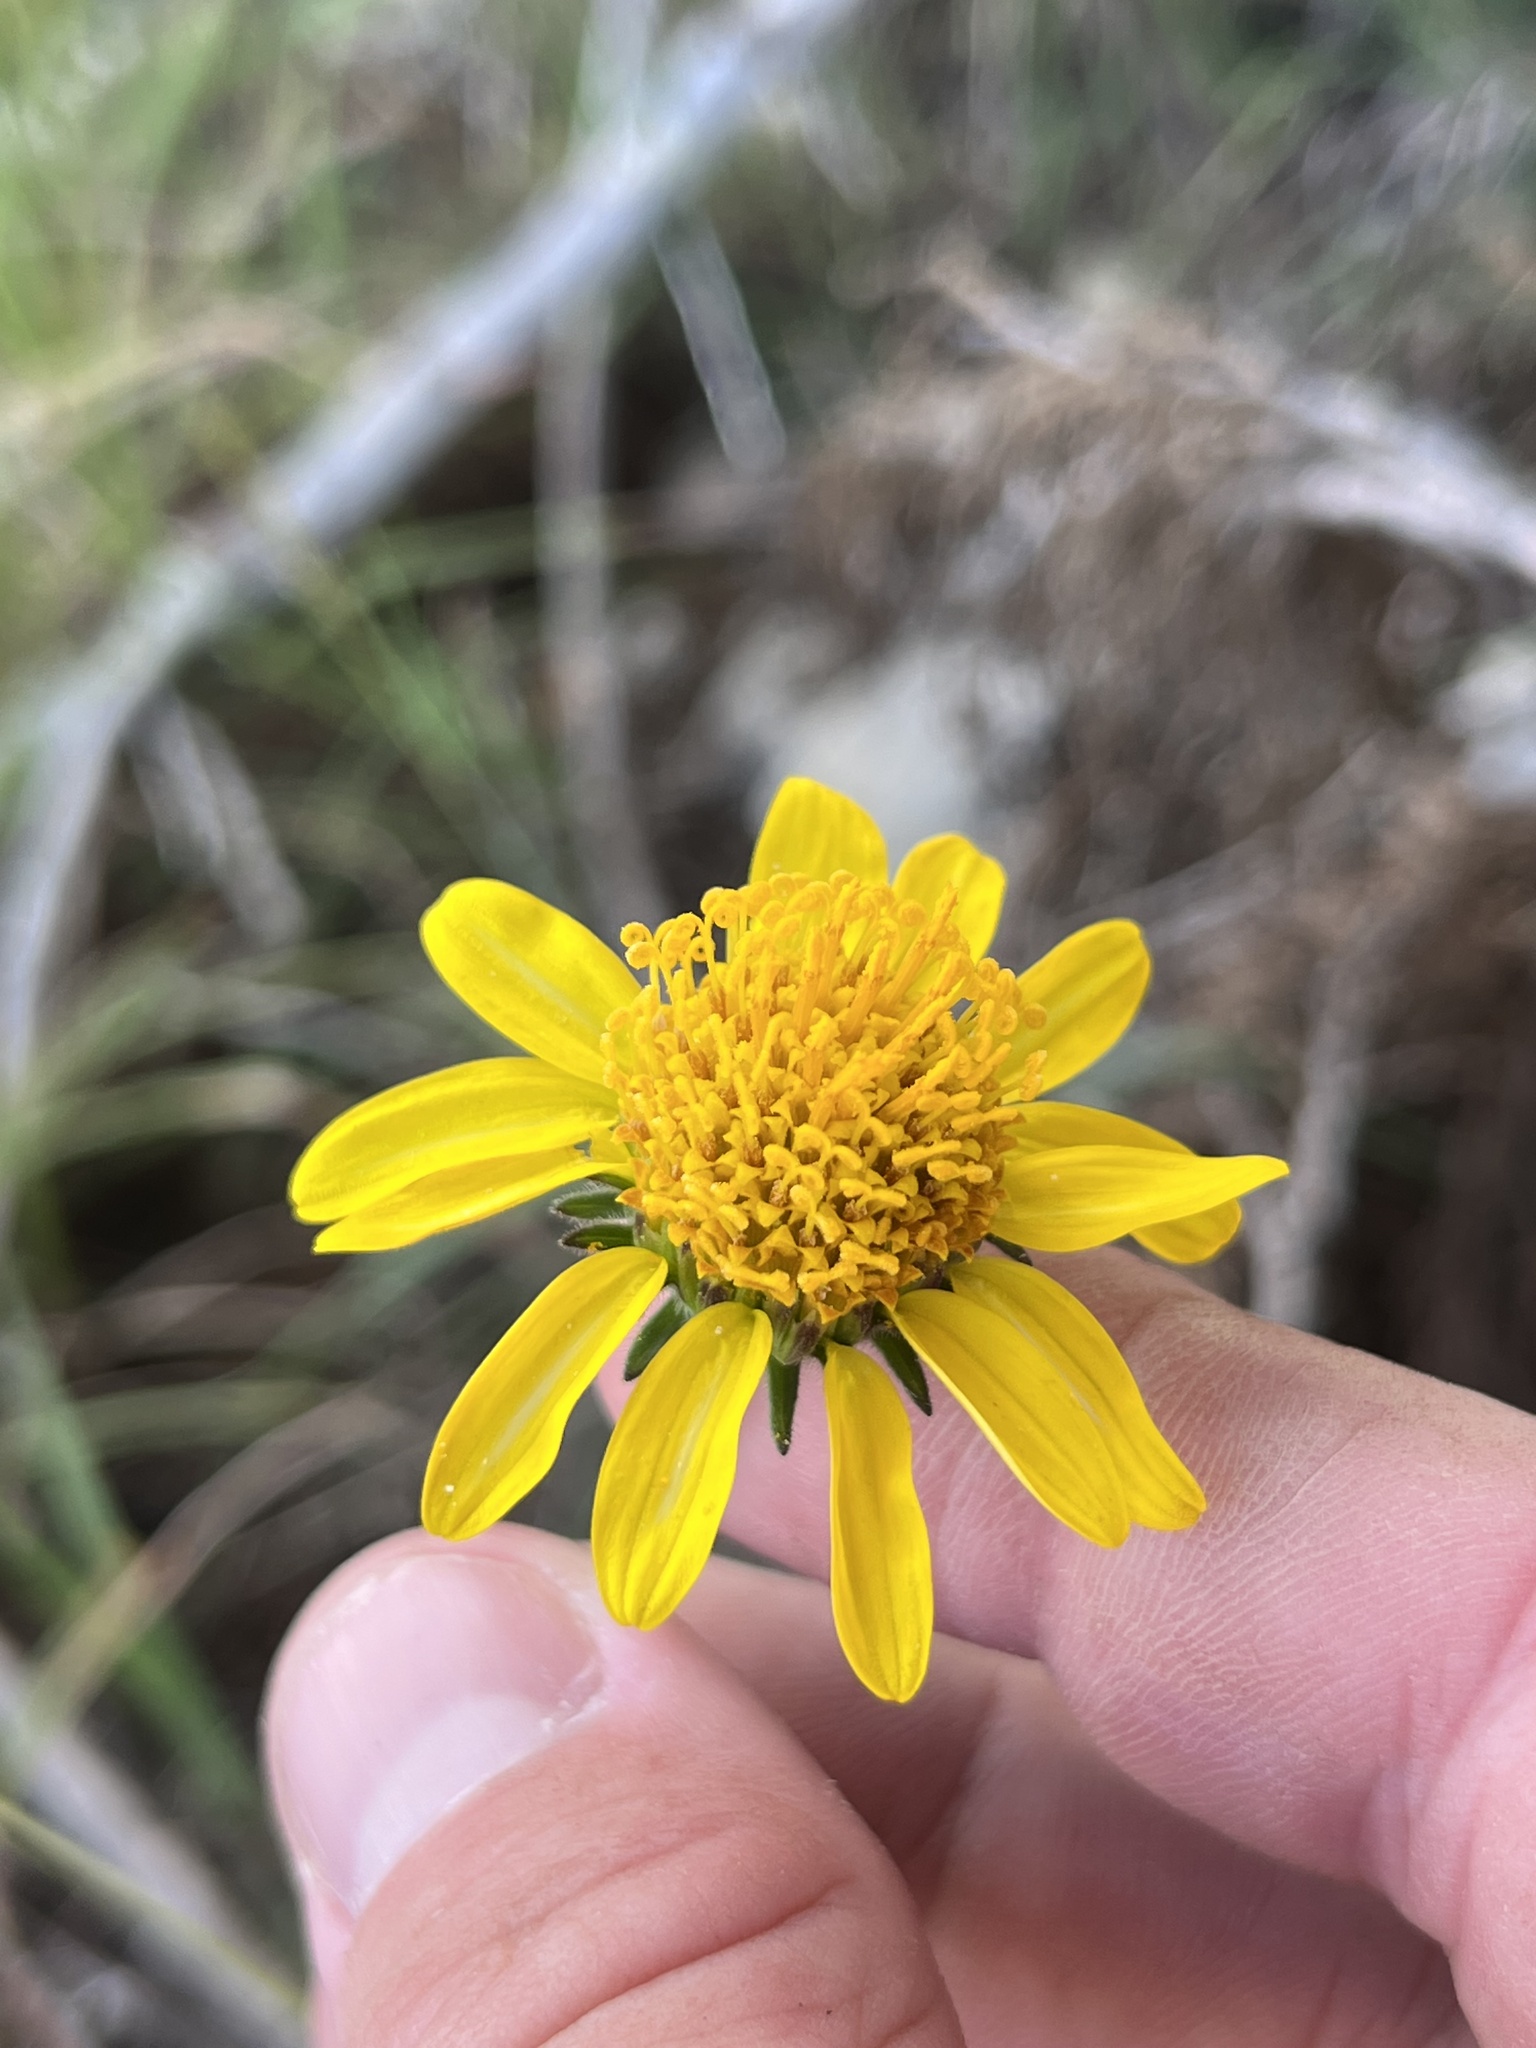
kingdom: Plantae
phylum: Tracheophyta
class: Magnoliopsida
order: Asterales
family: Asteraceae
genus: Simsia
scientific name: Simsia calva
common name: Awnless bush-sunflower
